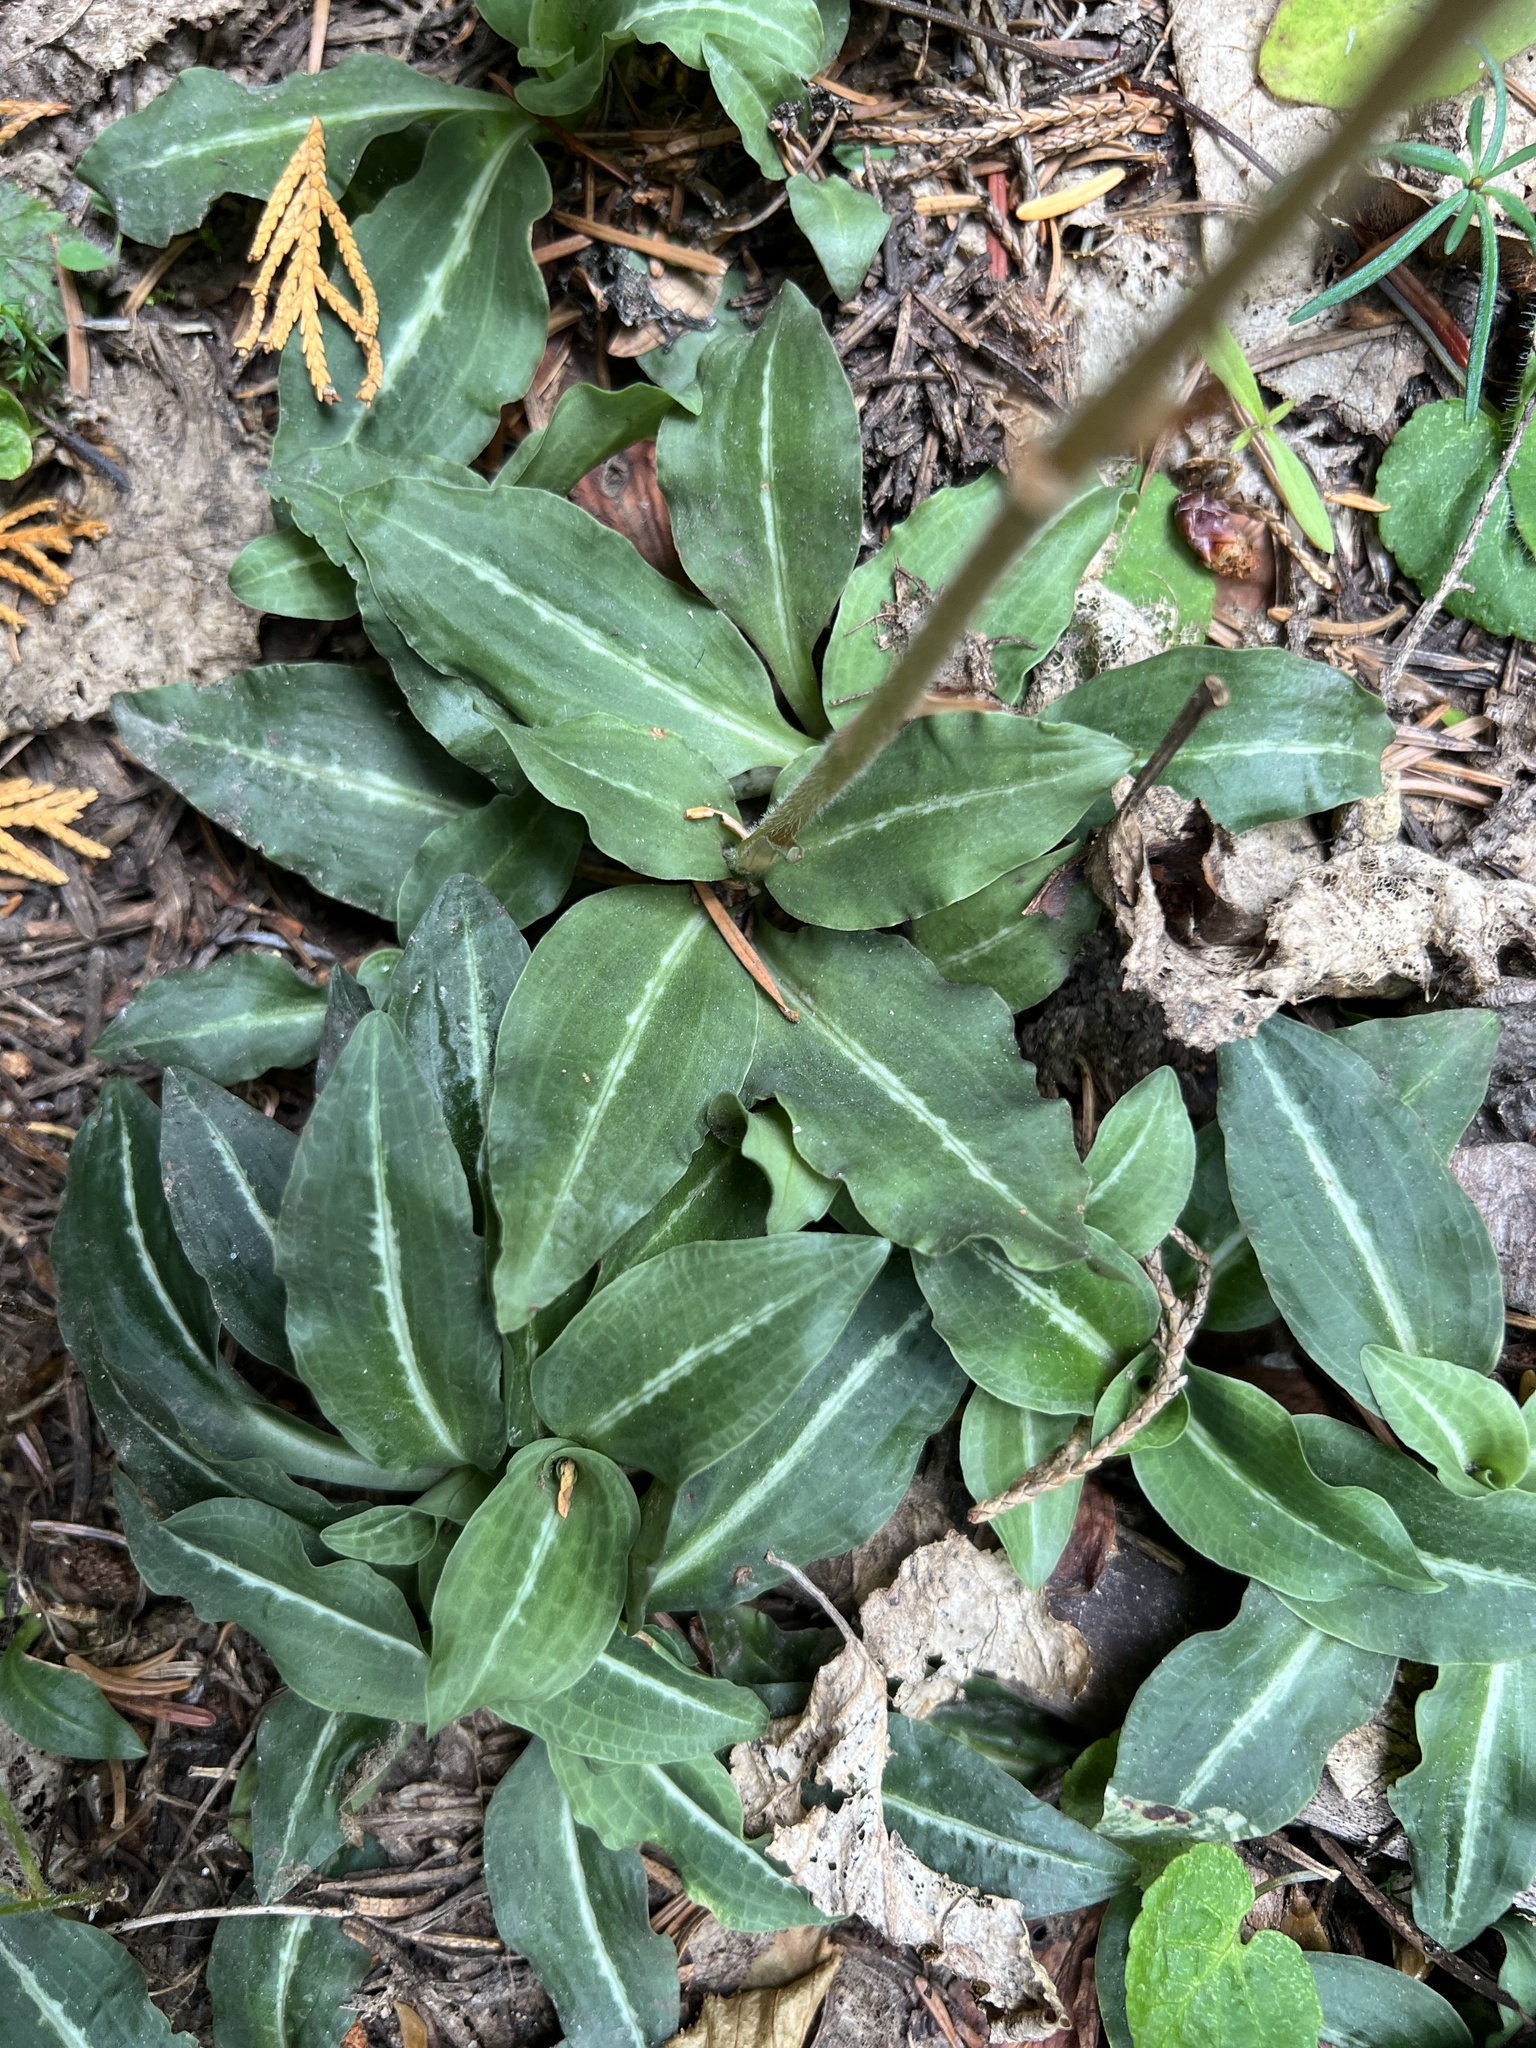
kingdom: Plantae
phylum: Tracheophyta
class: Liliopsida
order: Asparagales
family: Orchidaceae
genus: Goodyera
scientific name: Goodyera oblongifolia
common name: Giant rattlesnake-plantain
